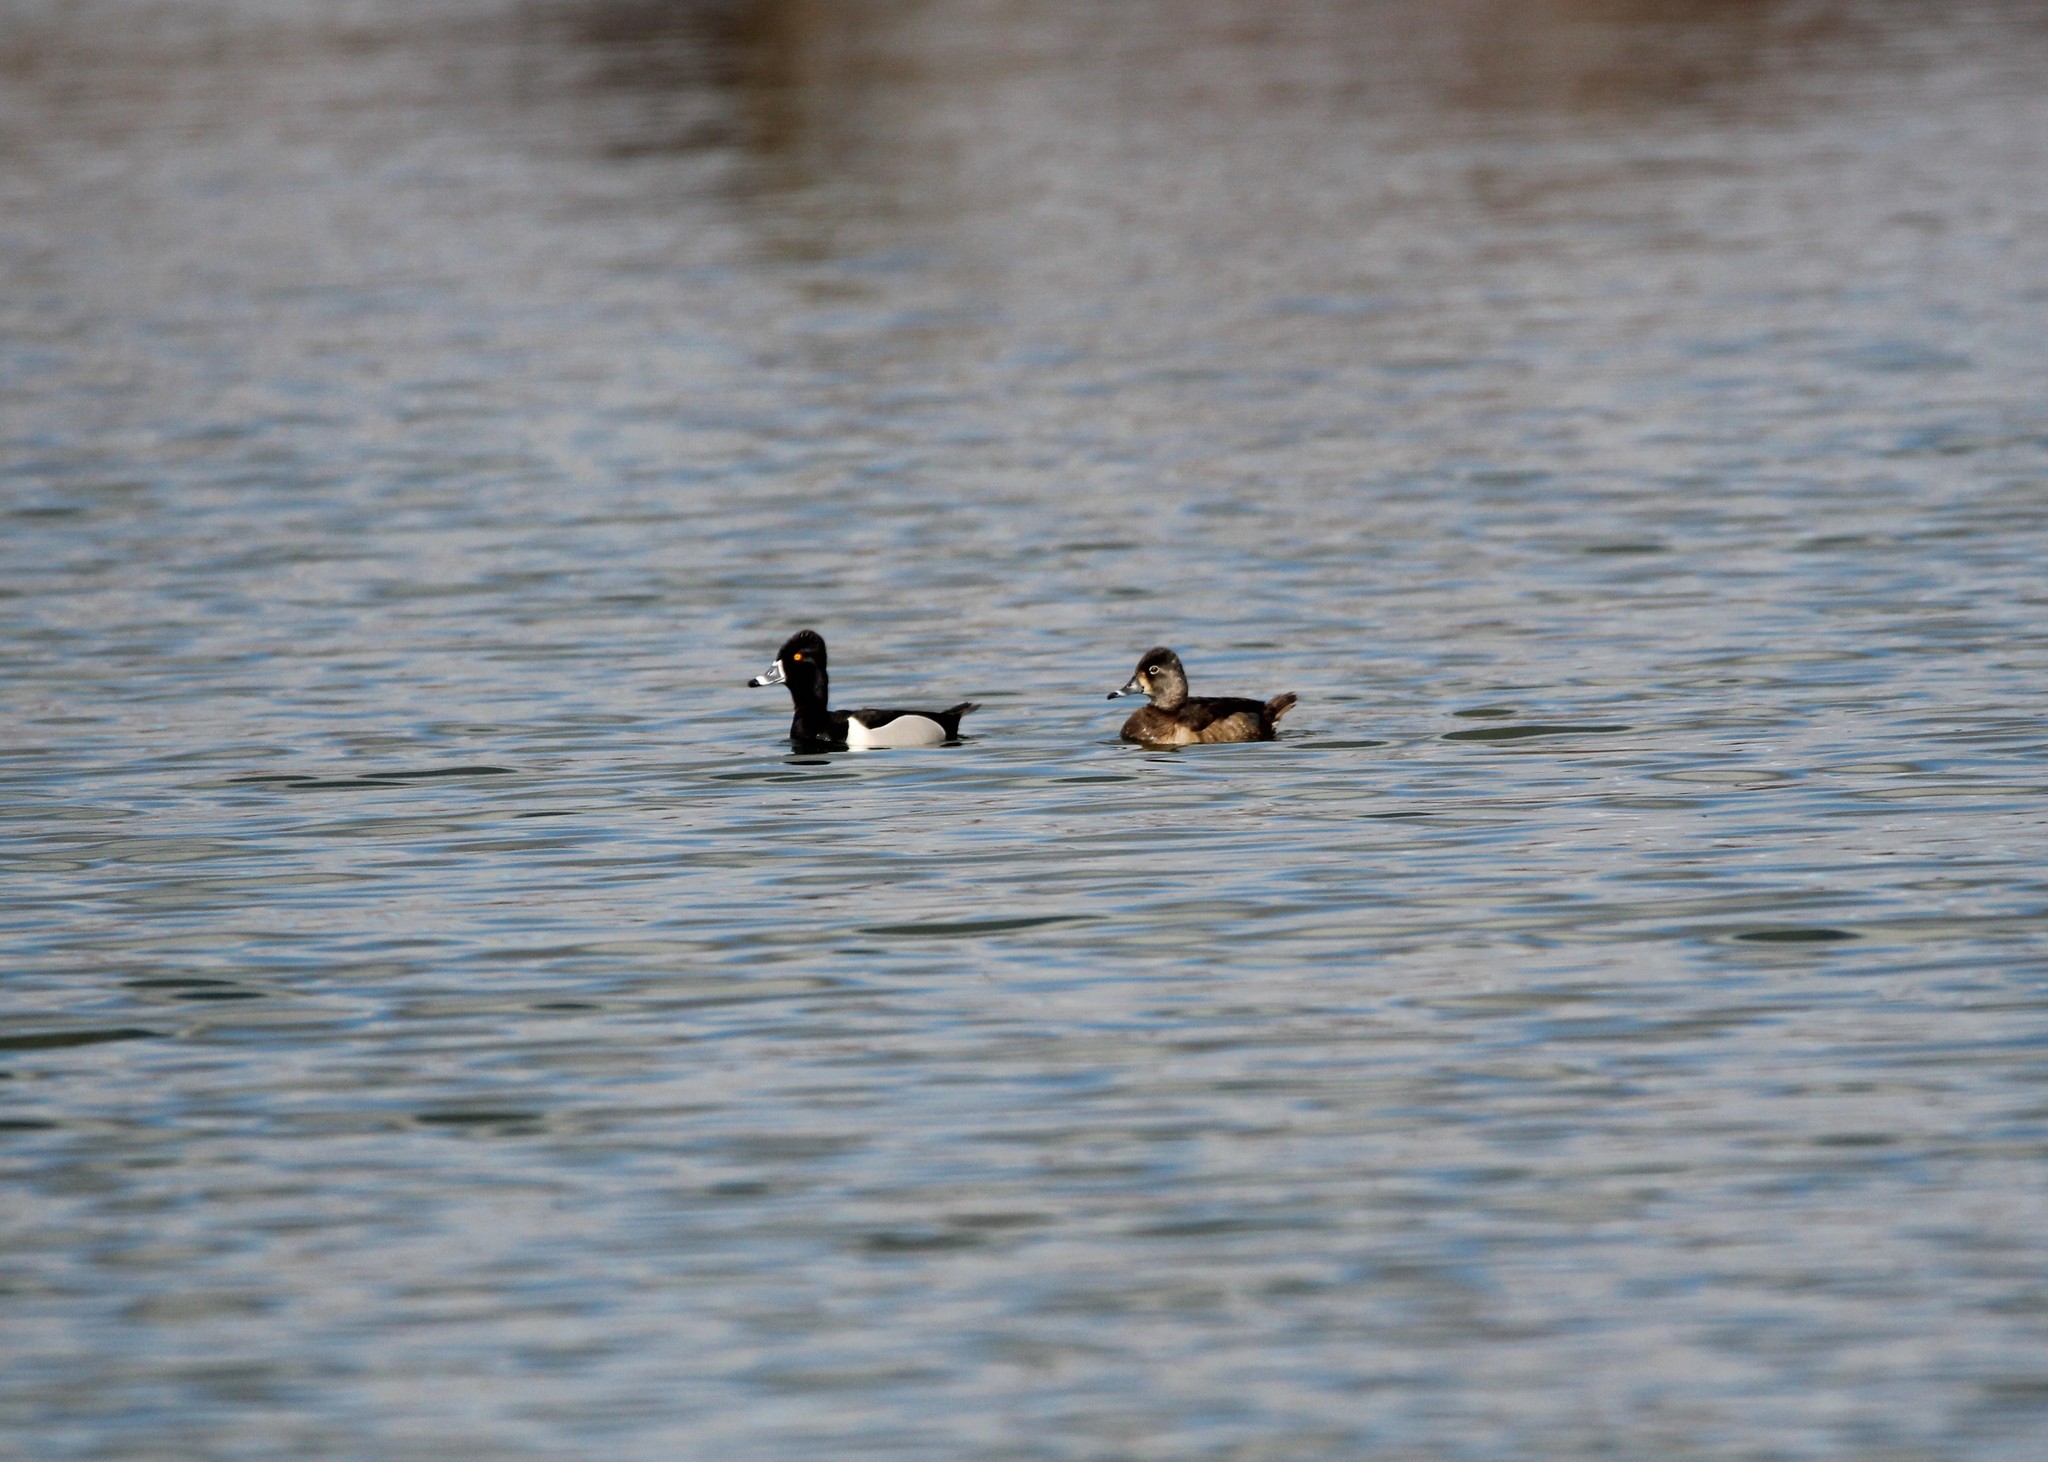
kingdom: Animalia
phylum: Chordata
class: Aves
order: Anseriformes
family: Anatidae
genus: Aythya
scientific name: Aythya collaris
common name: Ring-necked duck
